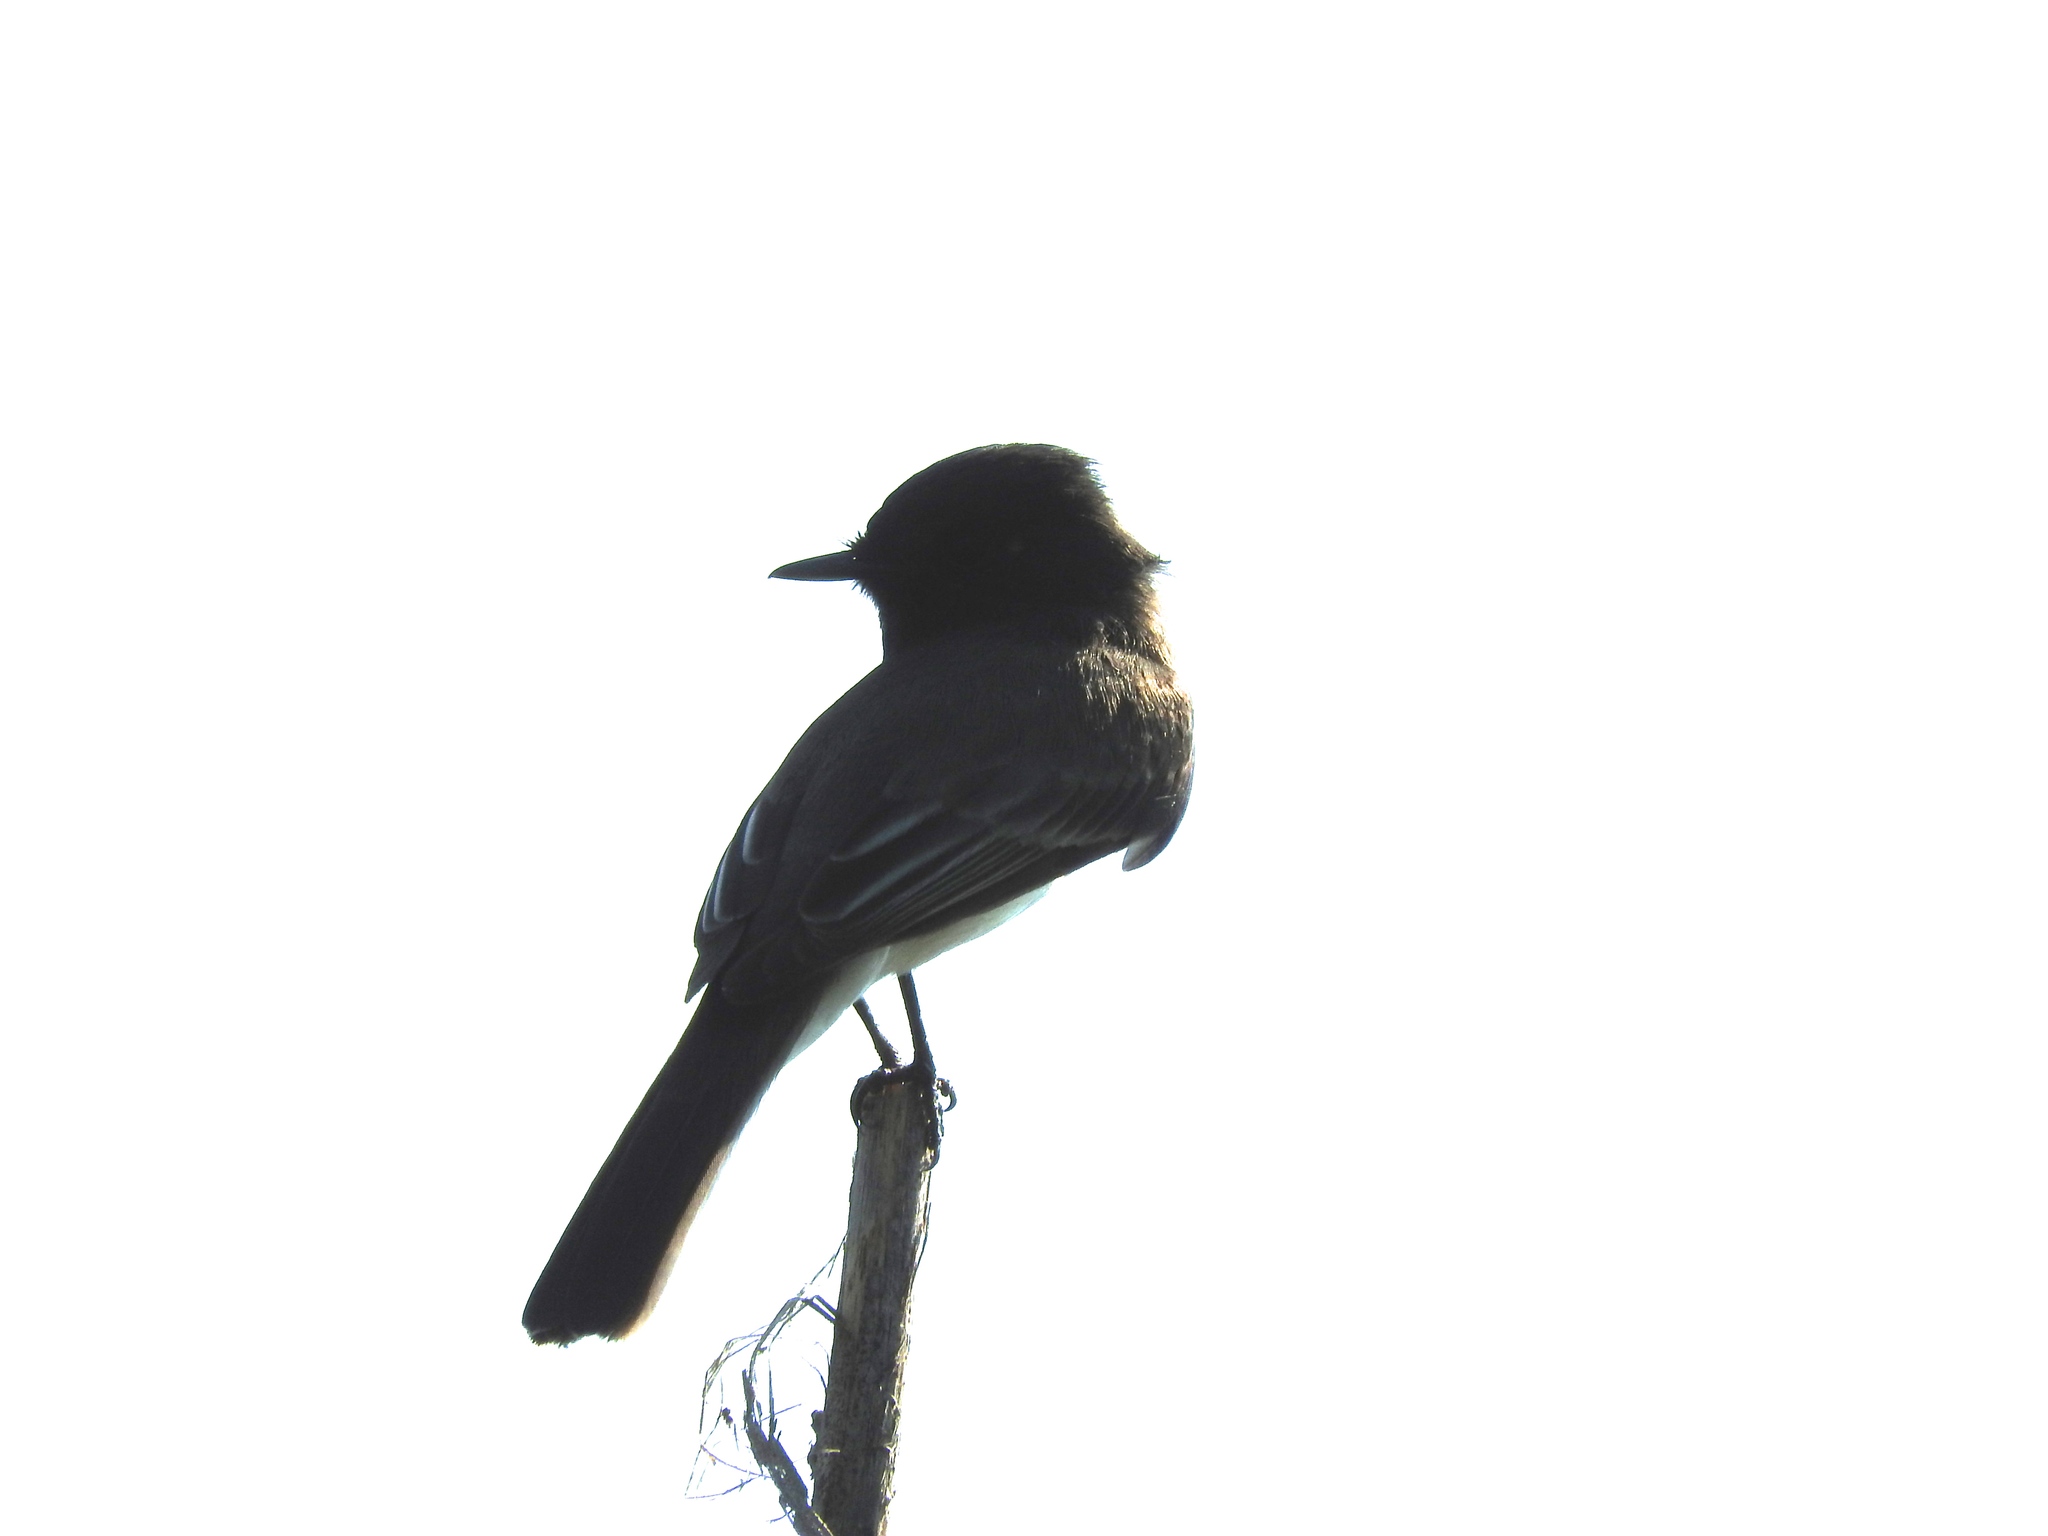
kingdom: Animalia
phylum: Chordata
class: Aves
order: Passeriformes
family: Tyrannidae
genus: Sayornis
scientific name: Sayornis nigricans
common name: Black phoebe
